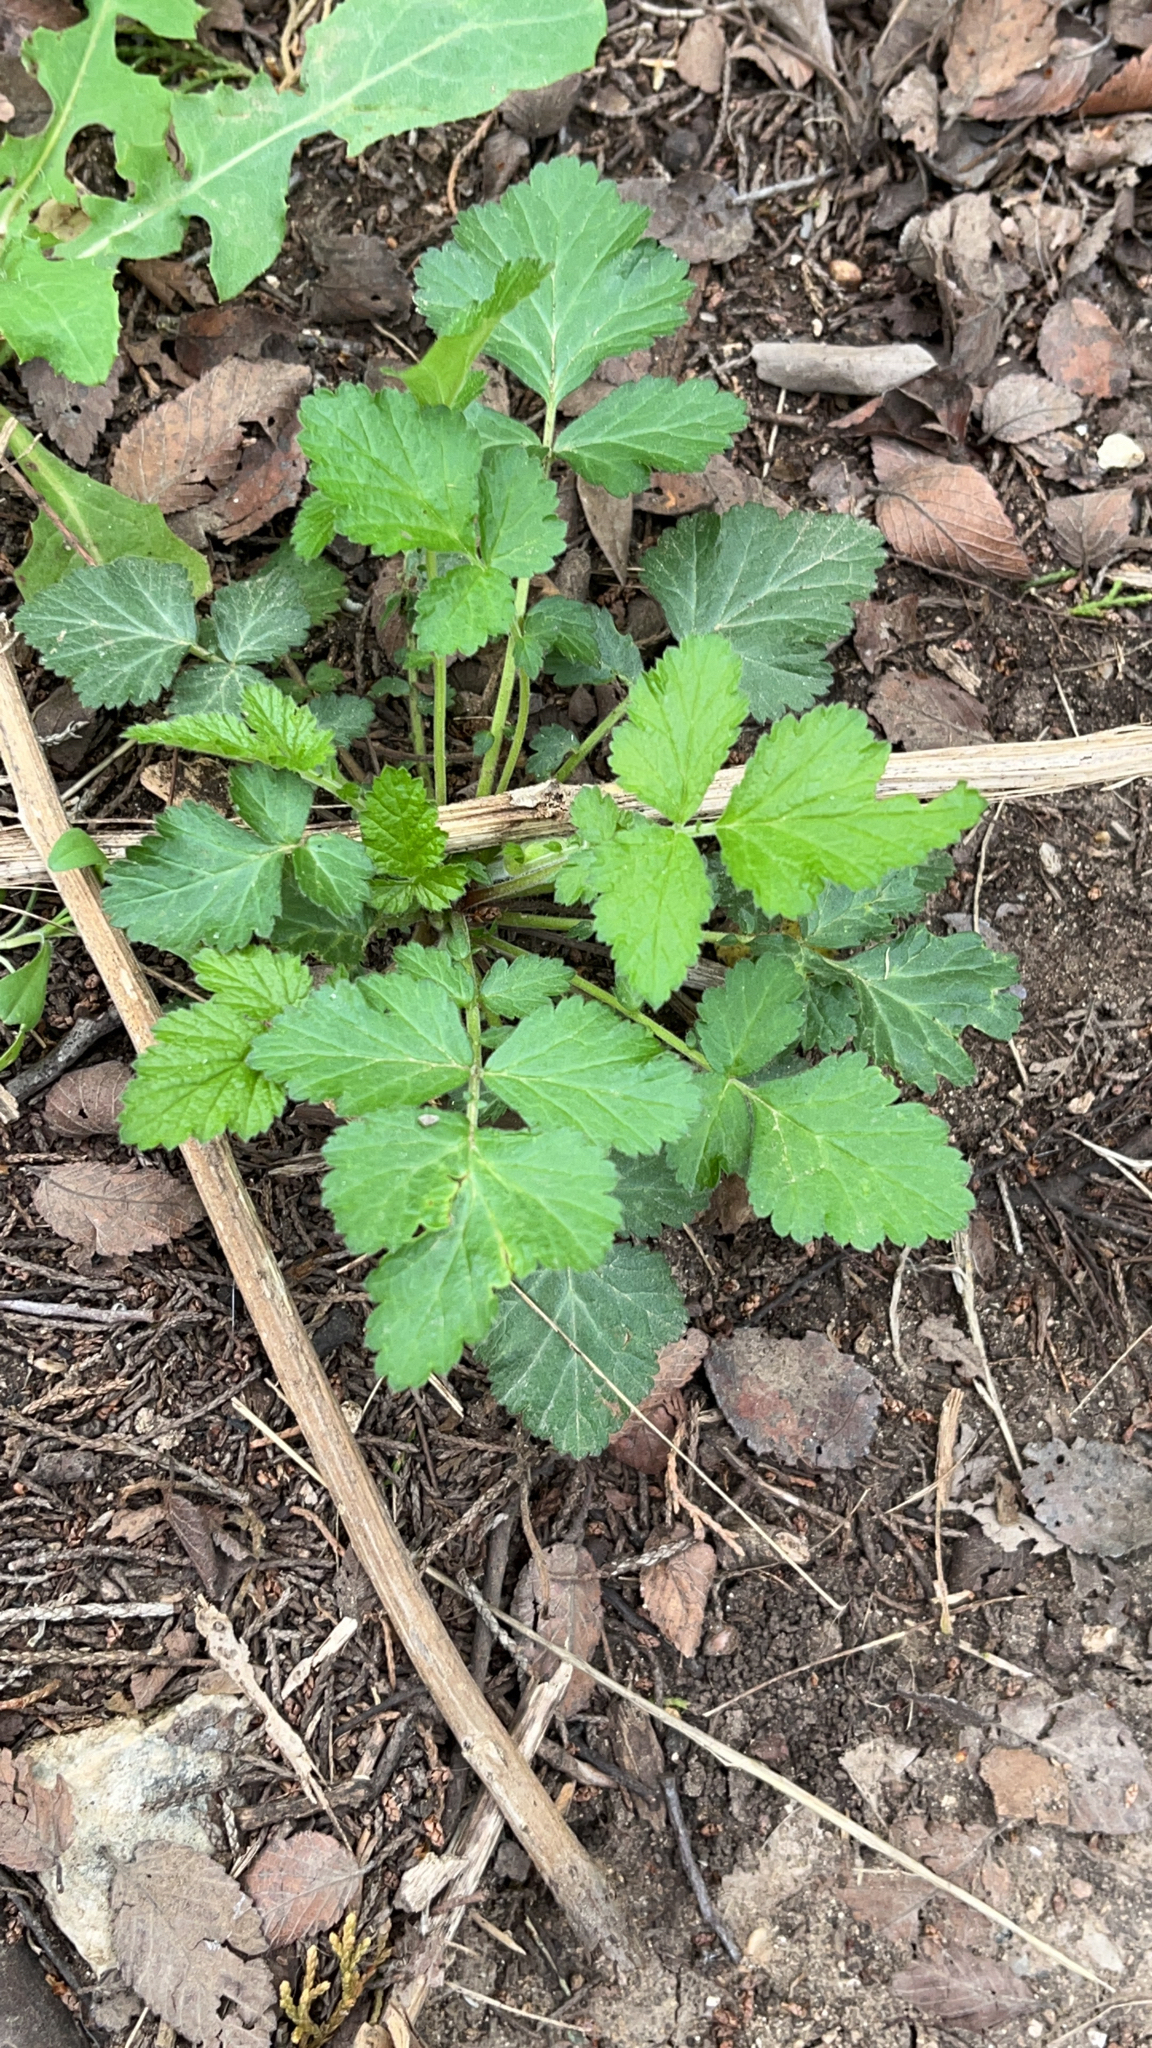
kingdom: Plantae
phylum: Tracheophyta
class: Magnoliopsida
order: Rosales
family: Rosaceae
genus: Geum
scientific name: Geum canadense
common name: White avens
